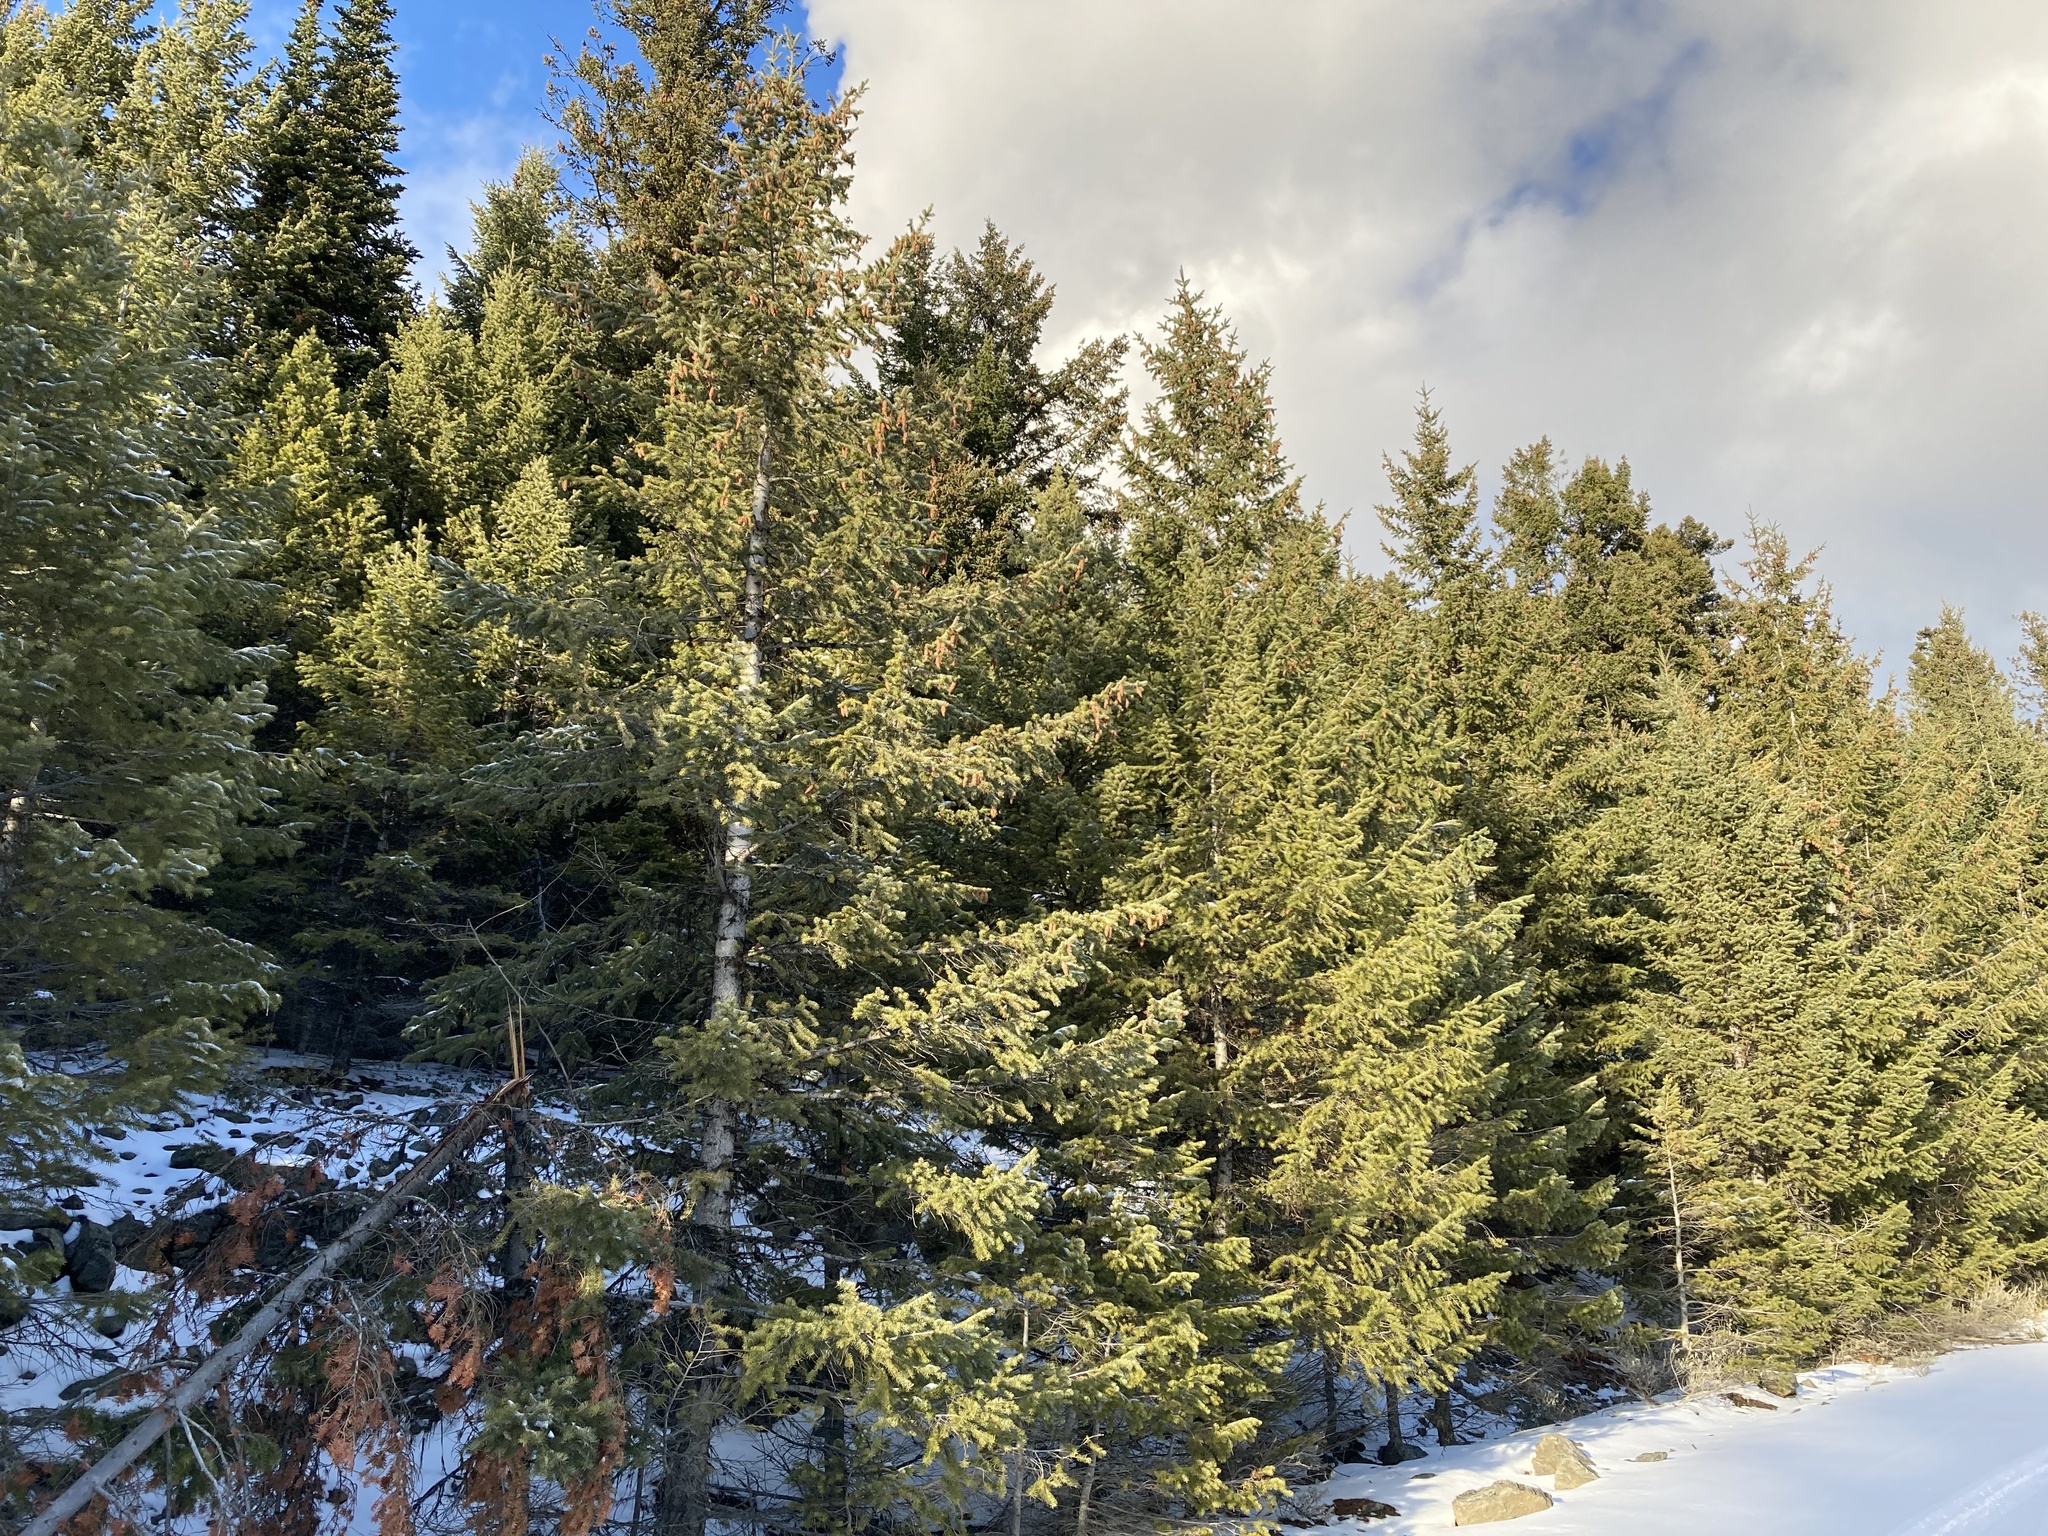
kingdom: Plantae
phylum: Tracheophyta
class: Pinopsida
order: Pinales
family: Pinaceae
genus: Pseudotsuga
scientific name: Pseudotsuga menziesii
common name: Douglas fir
